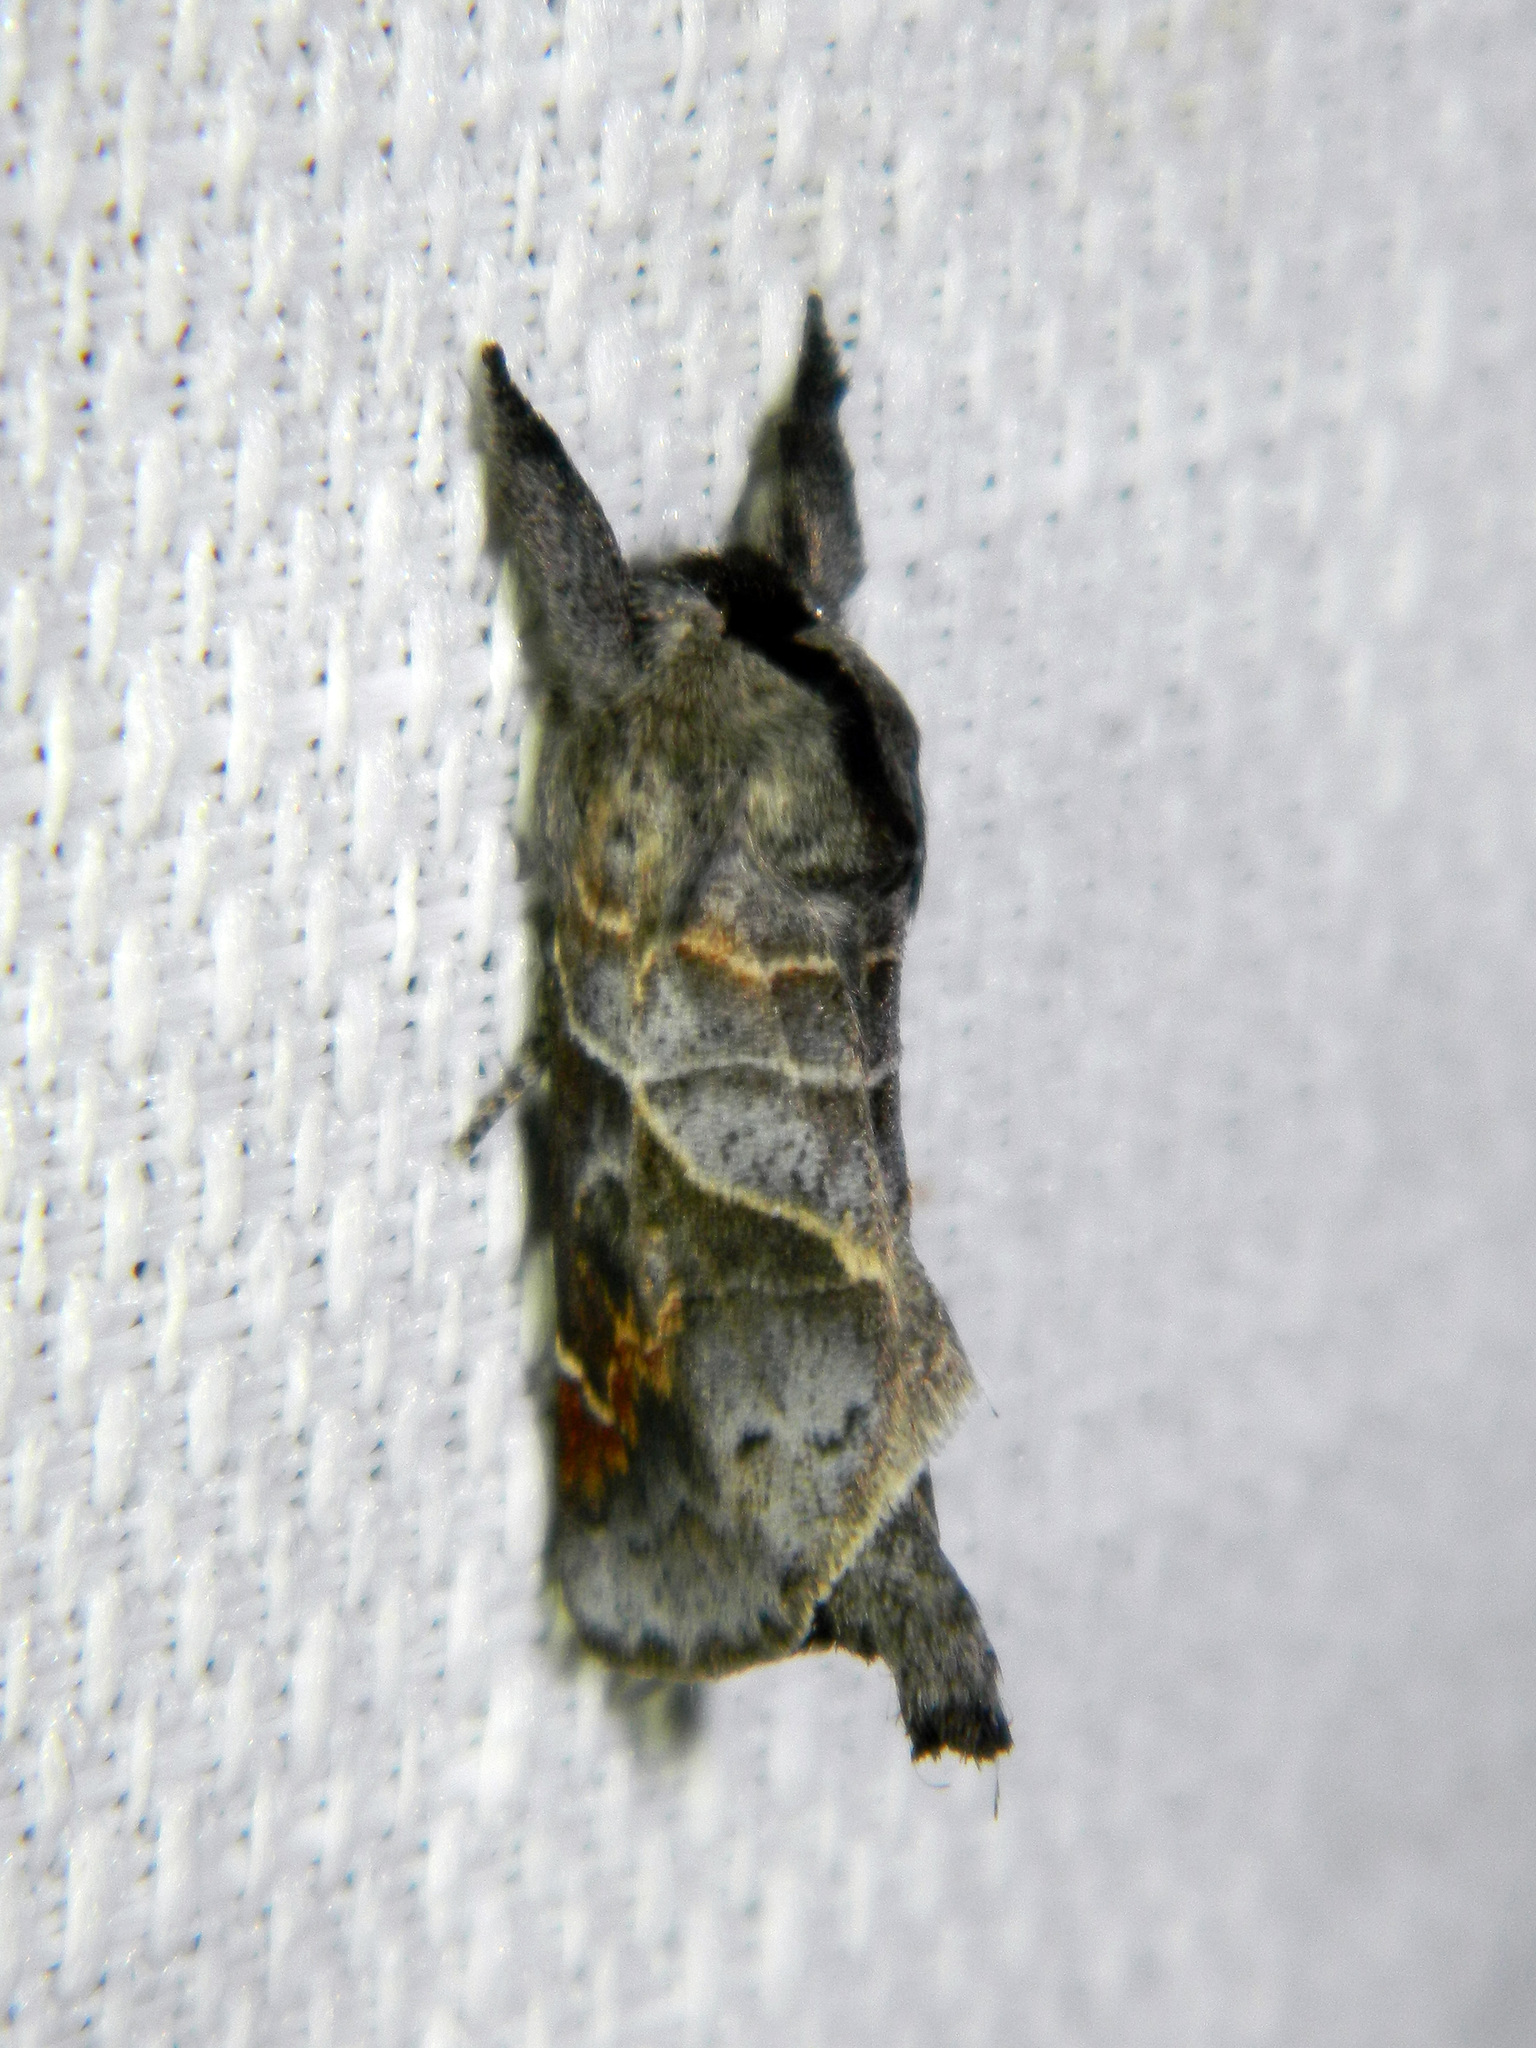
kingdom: Animalia
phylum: Arthropoda
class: Insecta
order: Lepidoptera
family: Notodontidae
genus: Clostera
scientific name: Clostera apicalis
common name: Apical prominent
